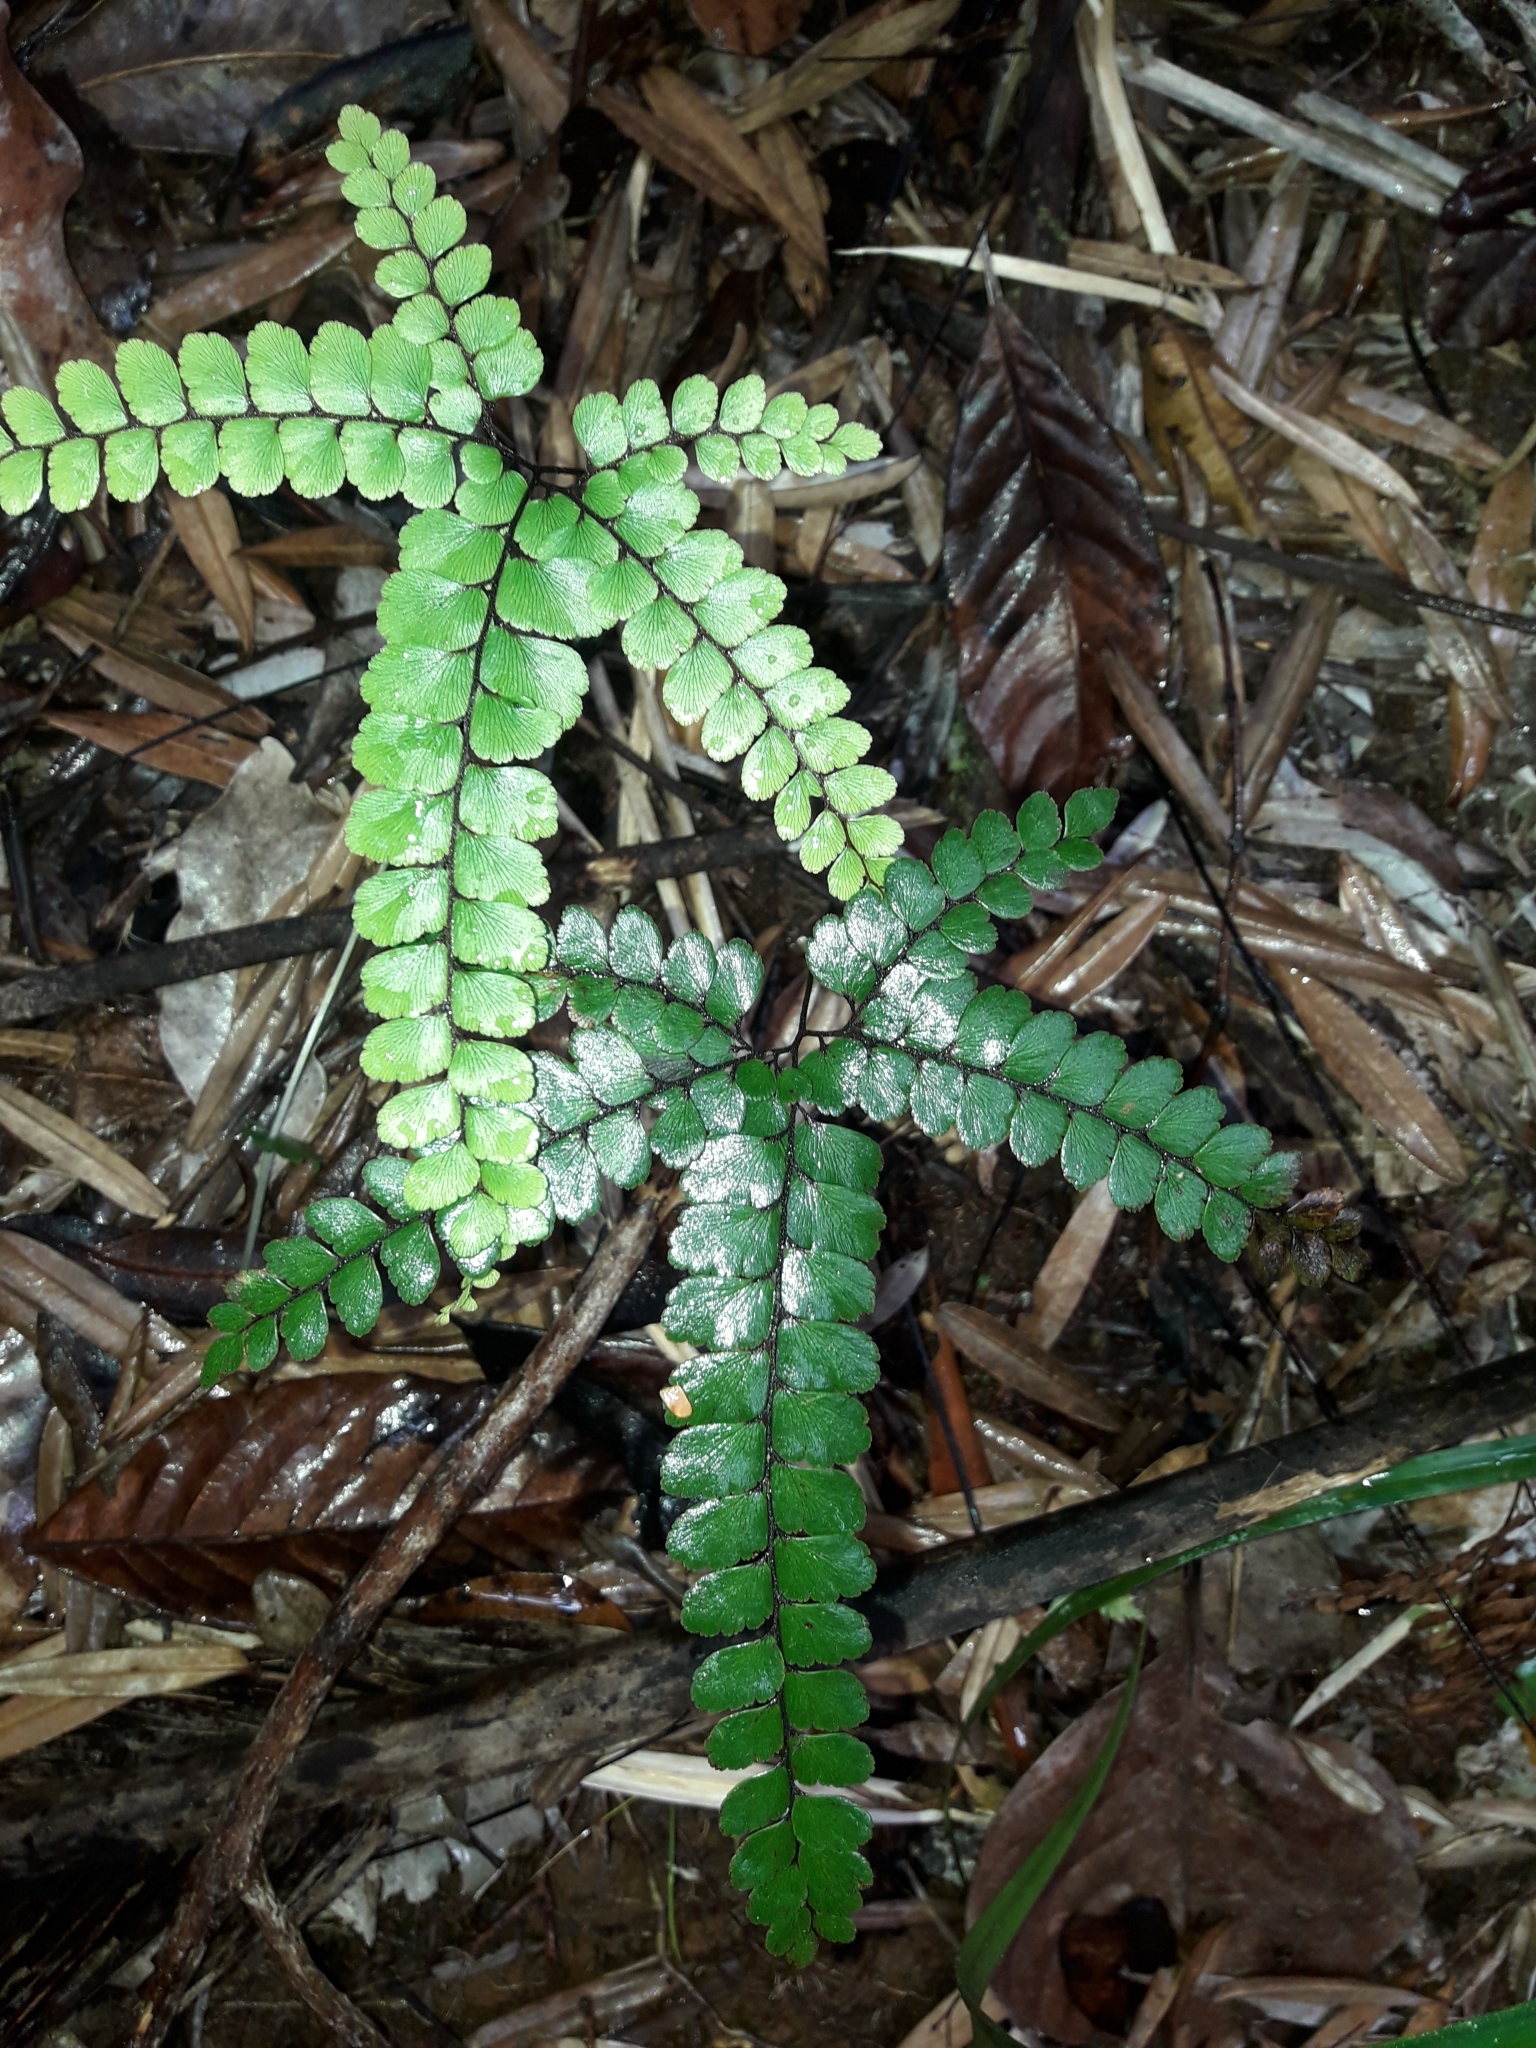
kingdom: Plantae
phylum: Tracheophyta
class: Polypodiopsida
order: Polypodiales
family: Pteridaceae
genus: Adiantum
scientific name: Adiantum hispidulum
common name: Rough maidenhair
